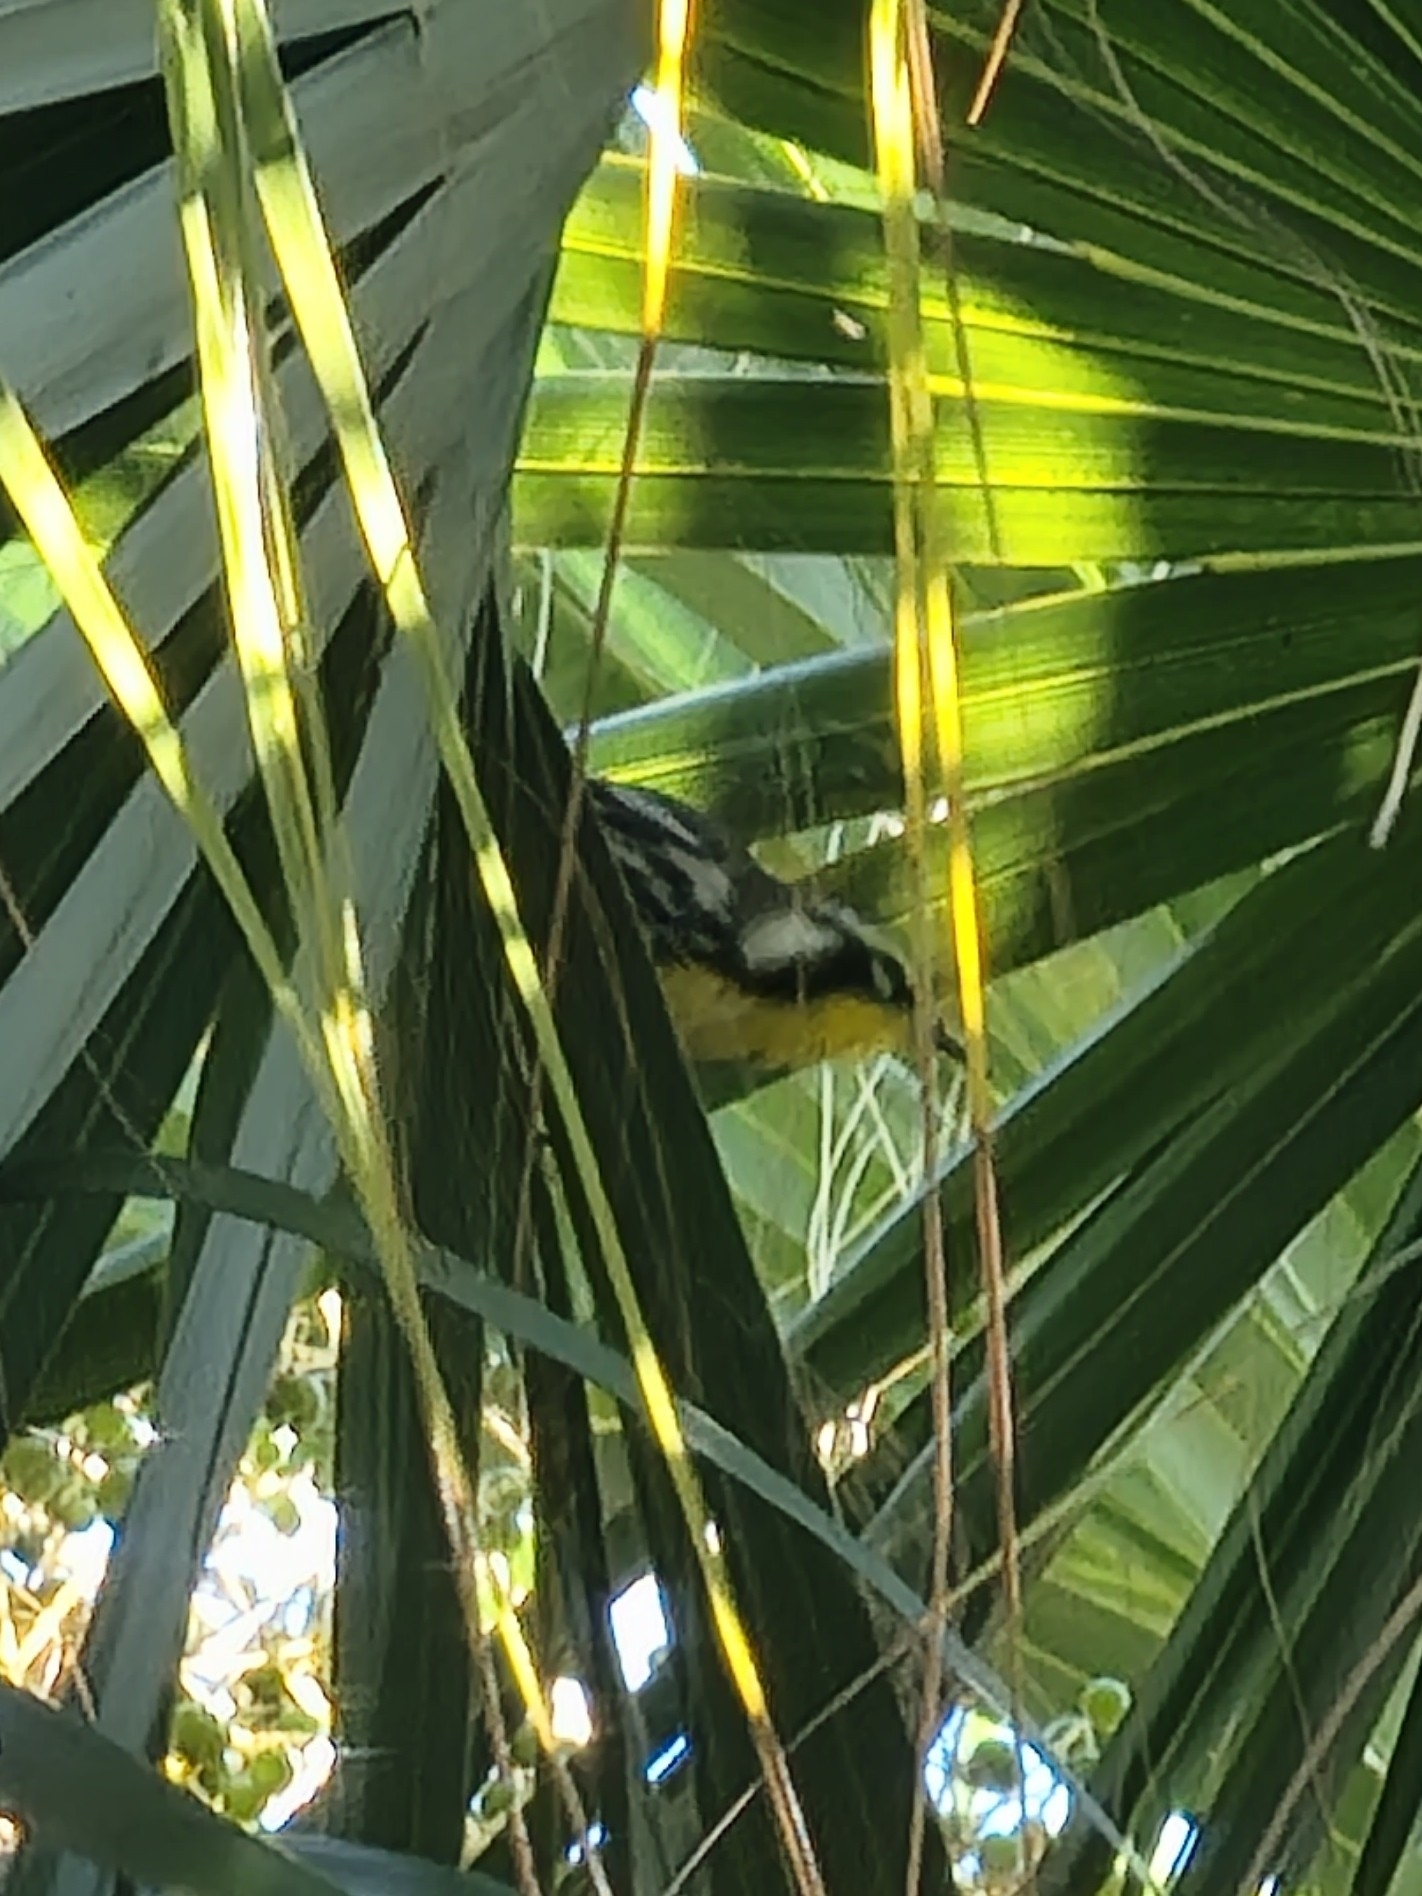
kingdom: Animalia
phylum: Chordata
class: Aves
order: Passeriformes
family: Parulidae
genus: Setophaga
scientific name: Setophaga dominica
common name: Yellow-throated warbler
